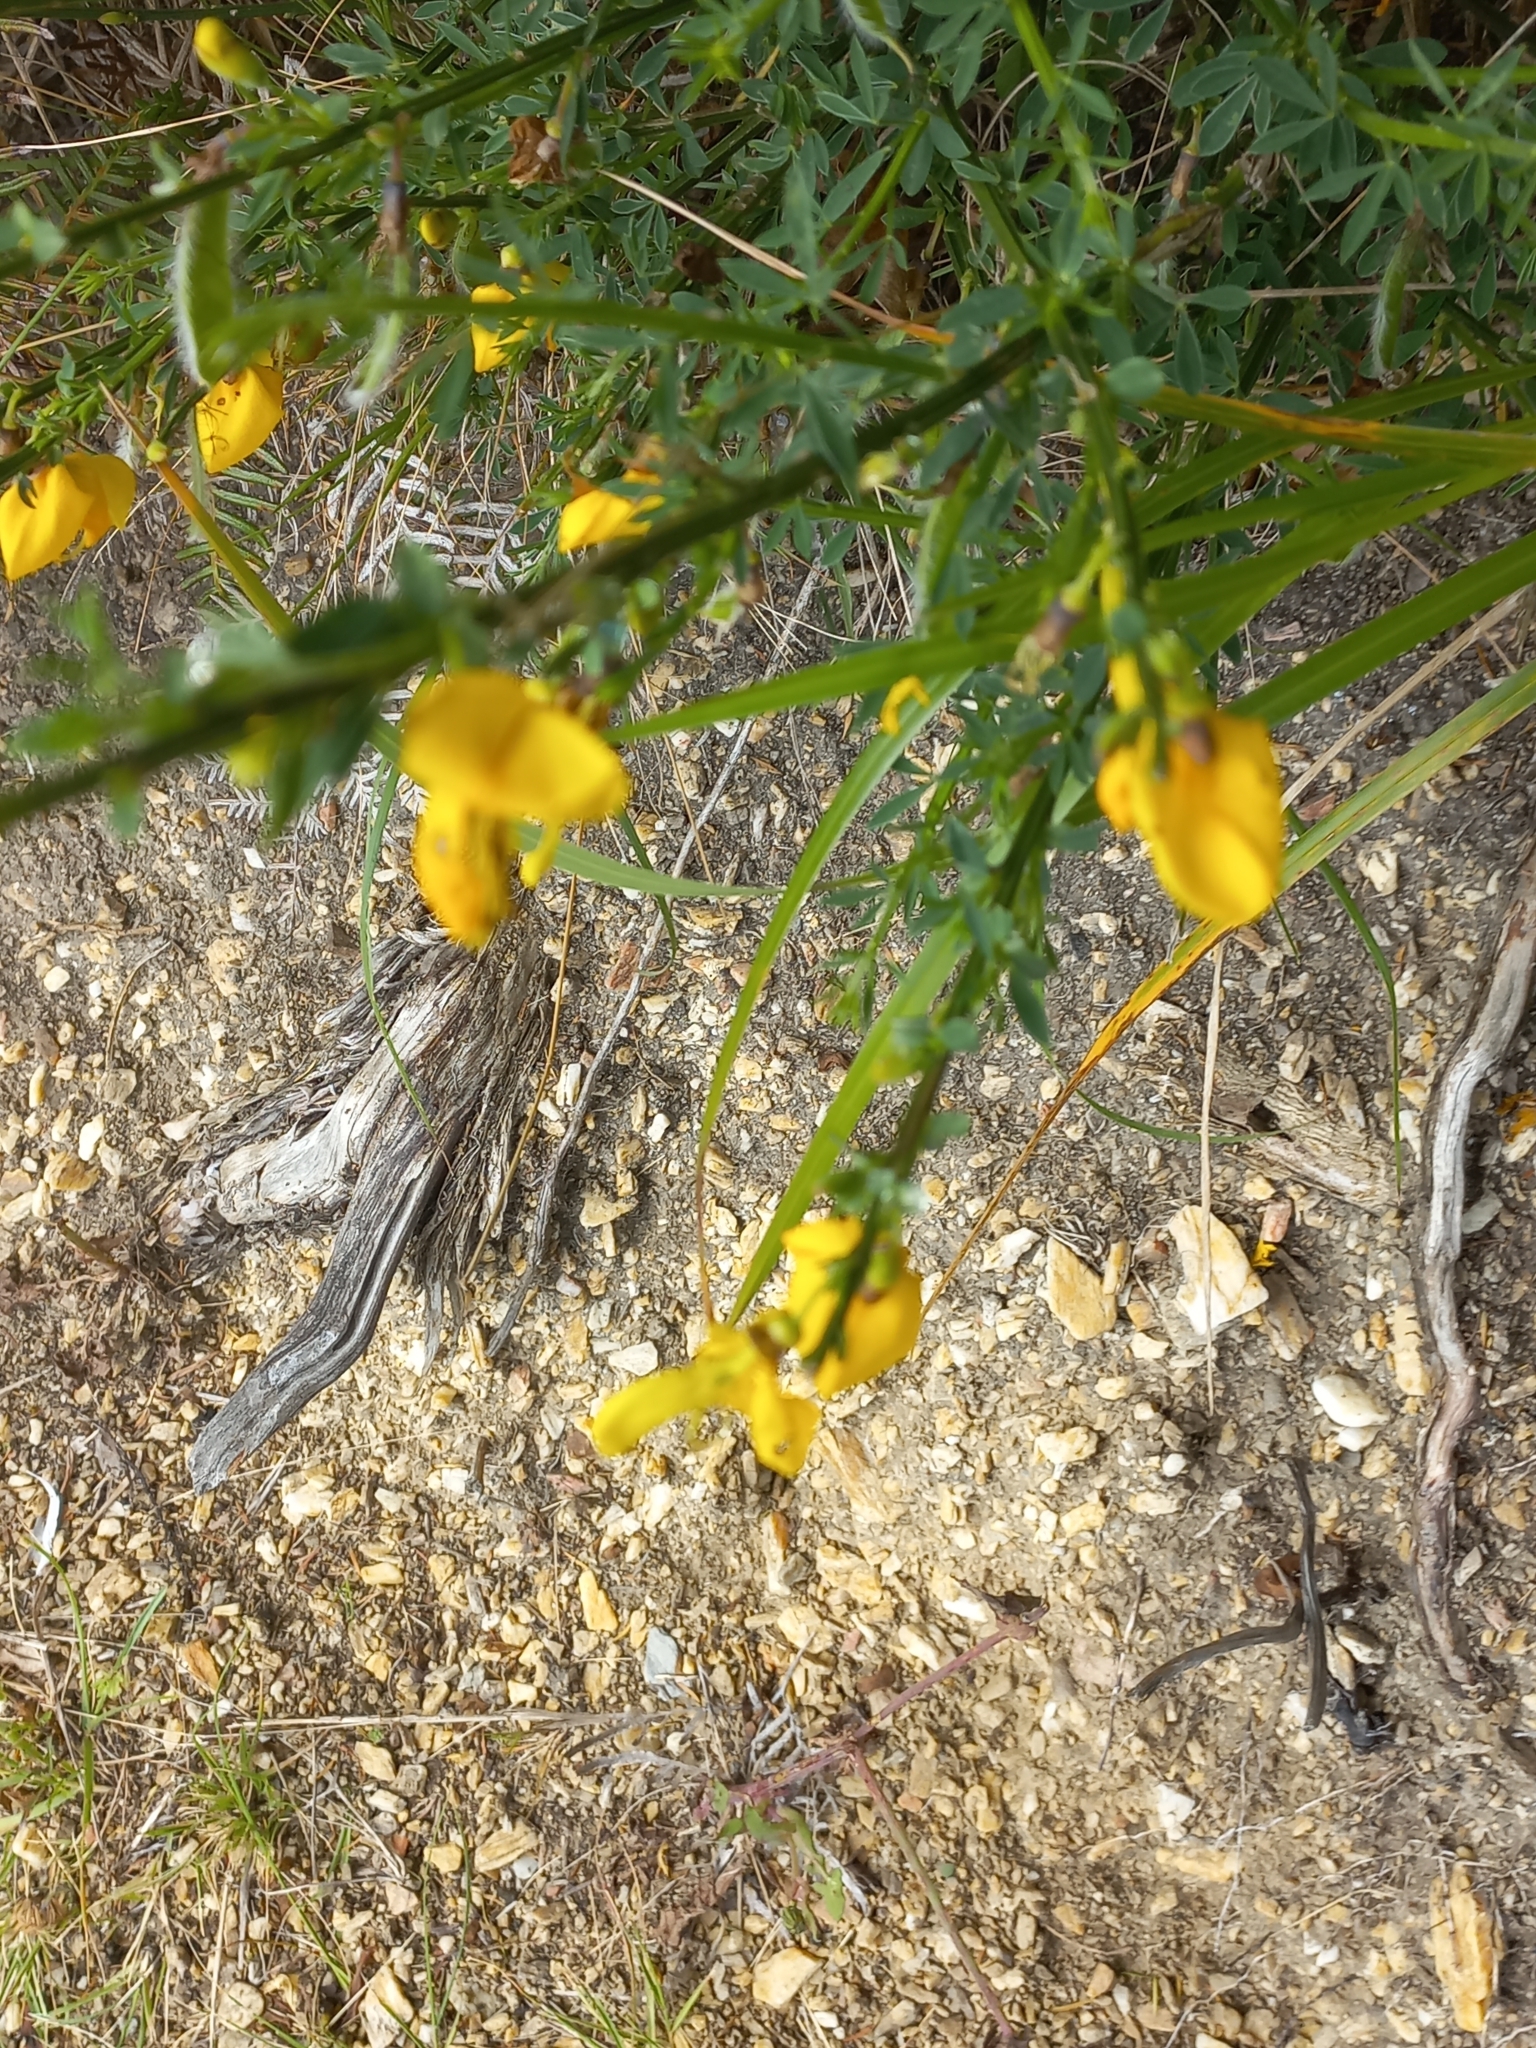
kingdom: Plantae
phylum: Tracheophyta
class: Magnoliopsida
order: Fabales
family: Fabaceae
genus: Cytisus
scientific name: Cytisus scoparius
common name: Scotch broom
